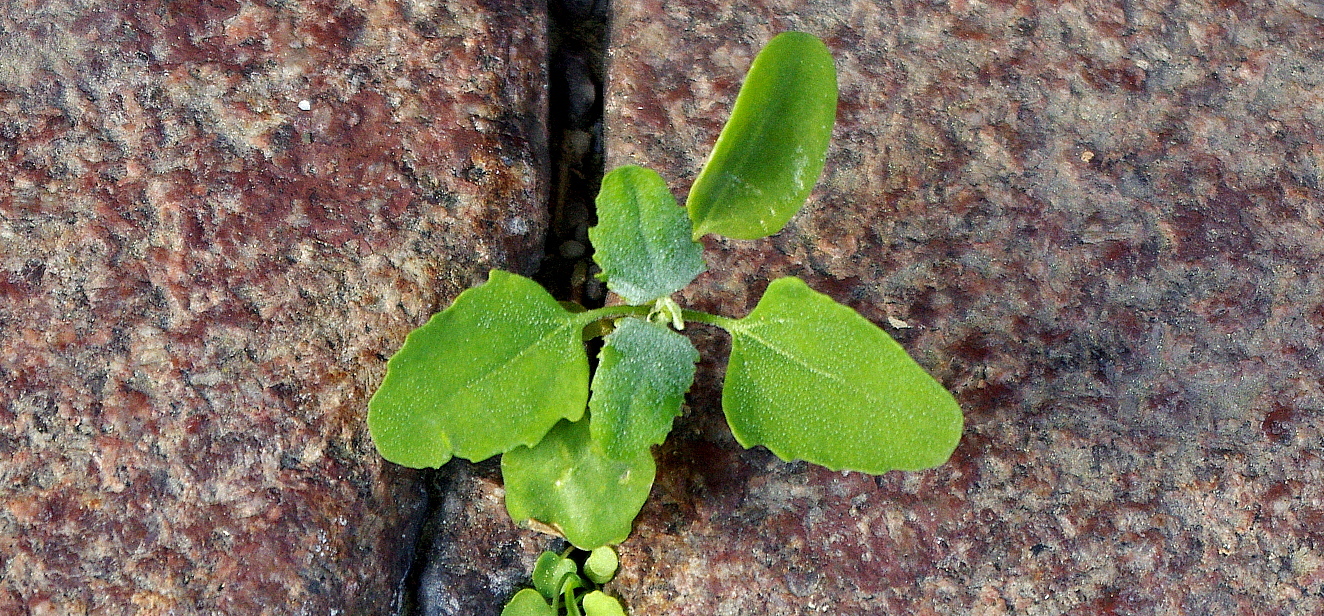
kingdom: Plantae
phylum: Tracheophyta
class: Magnoliopsida
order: Caryophyllales
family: Amaranthaceae
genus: Chenopodium
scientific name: Chenopodium album
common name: Fat-hen
